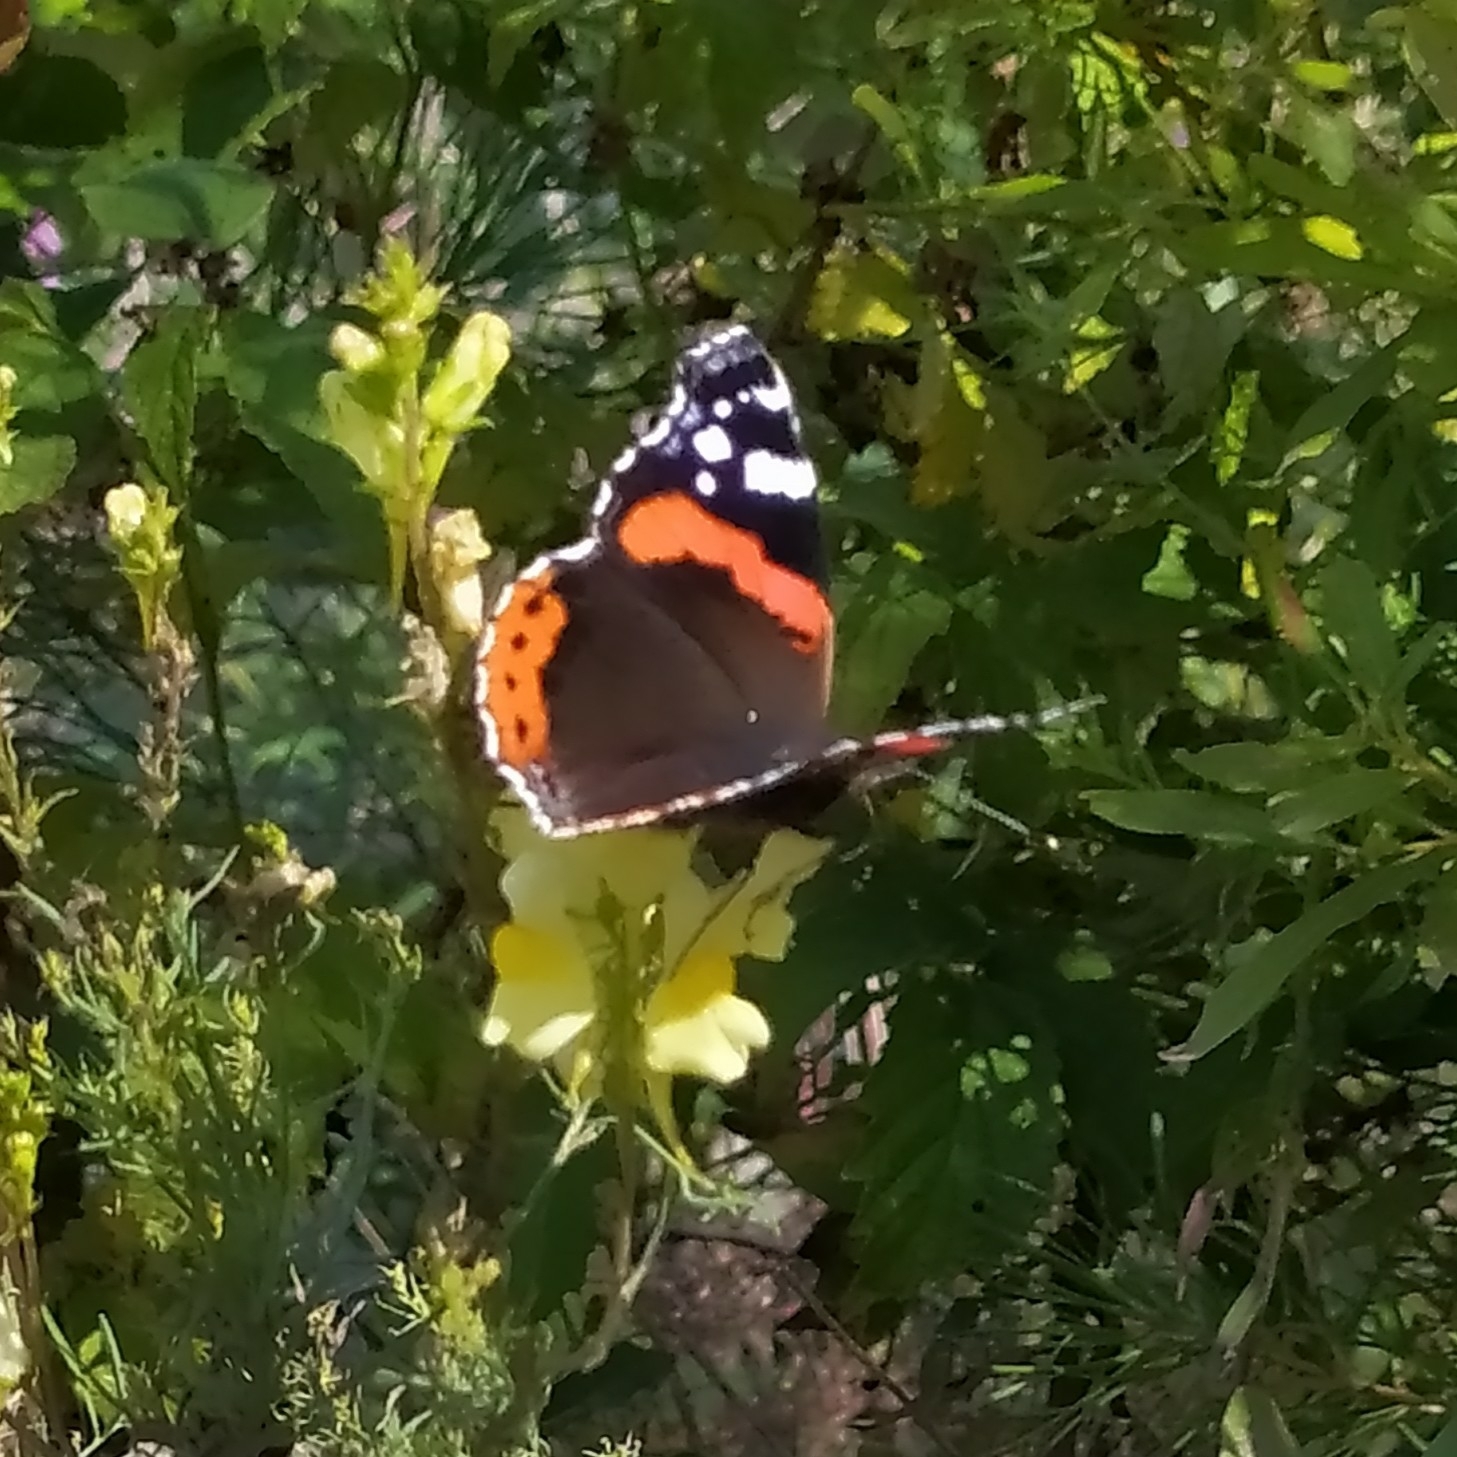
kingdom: Animalia
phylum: Arthropoda
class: Insecta
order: Lepidoptera
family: Nymphalidae
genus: Vanessa
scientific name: Vanessa atalanta
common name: Red admiral
